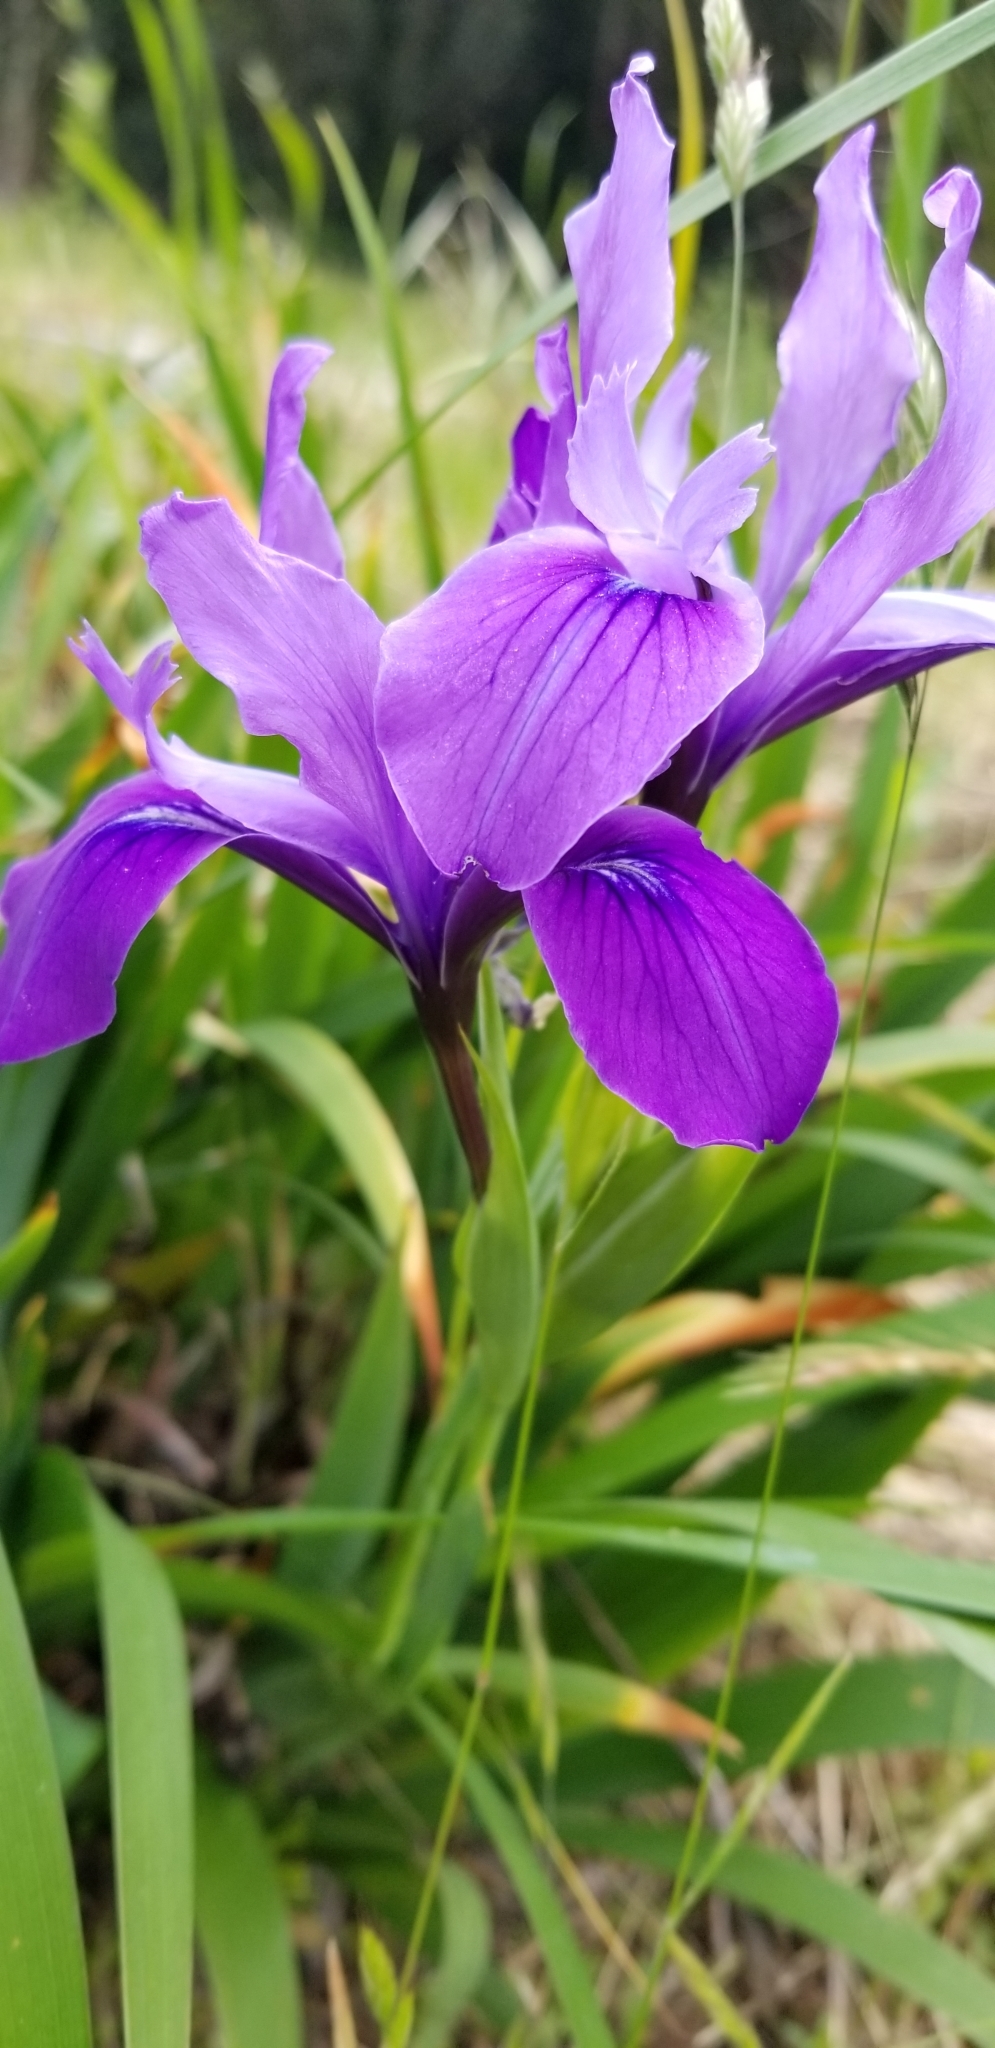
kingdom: Plantae
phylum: Tracheophyta
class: Liliopsida
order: Asparagales
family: Iridaceae
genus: Iris
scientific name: Iris douglasiana
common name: Marin iris
